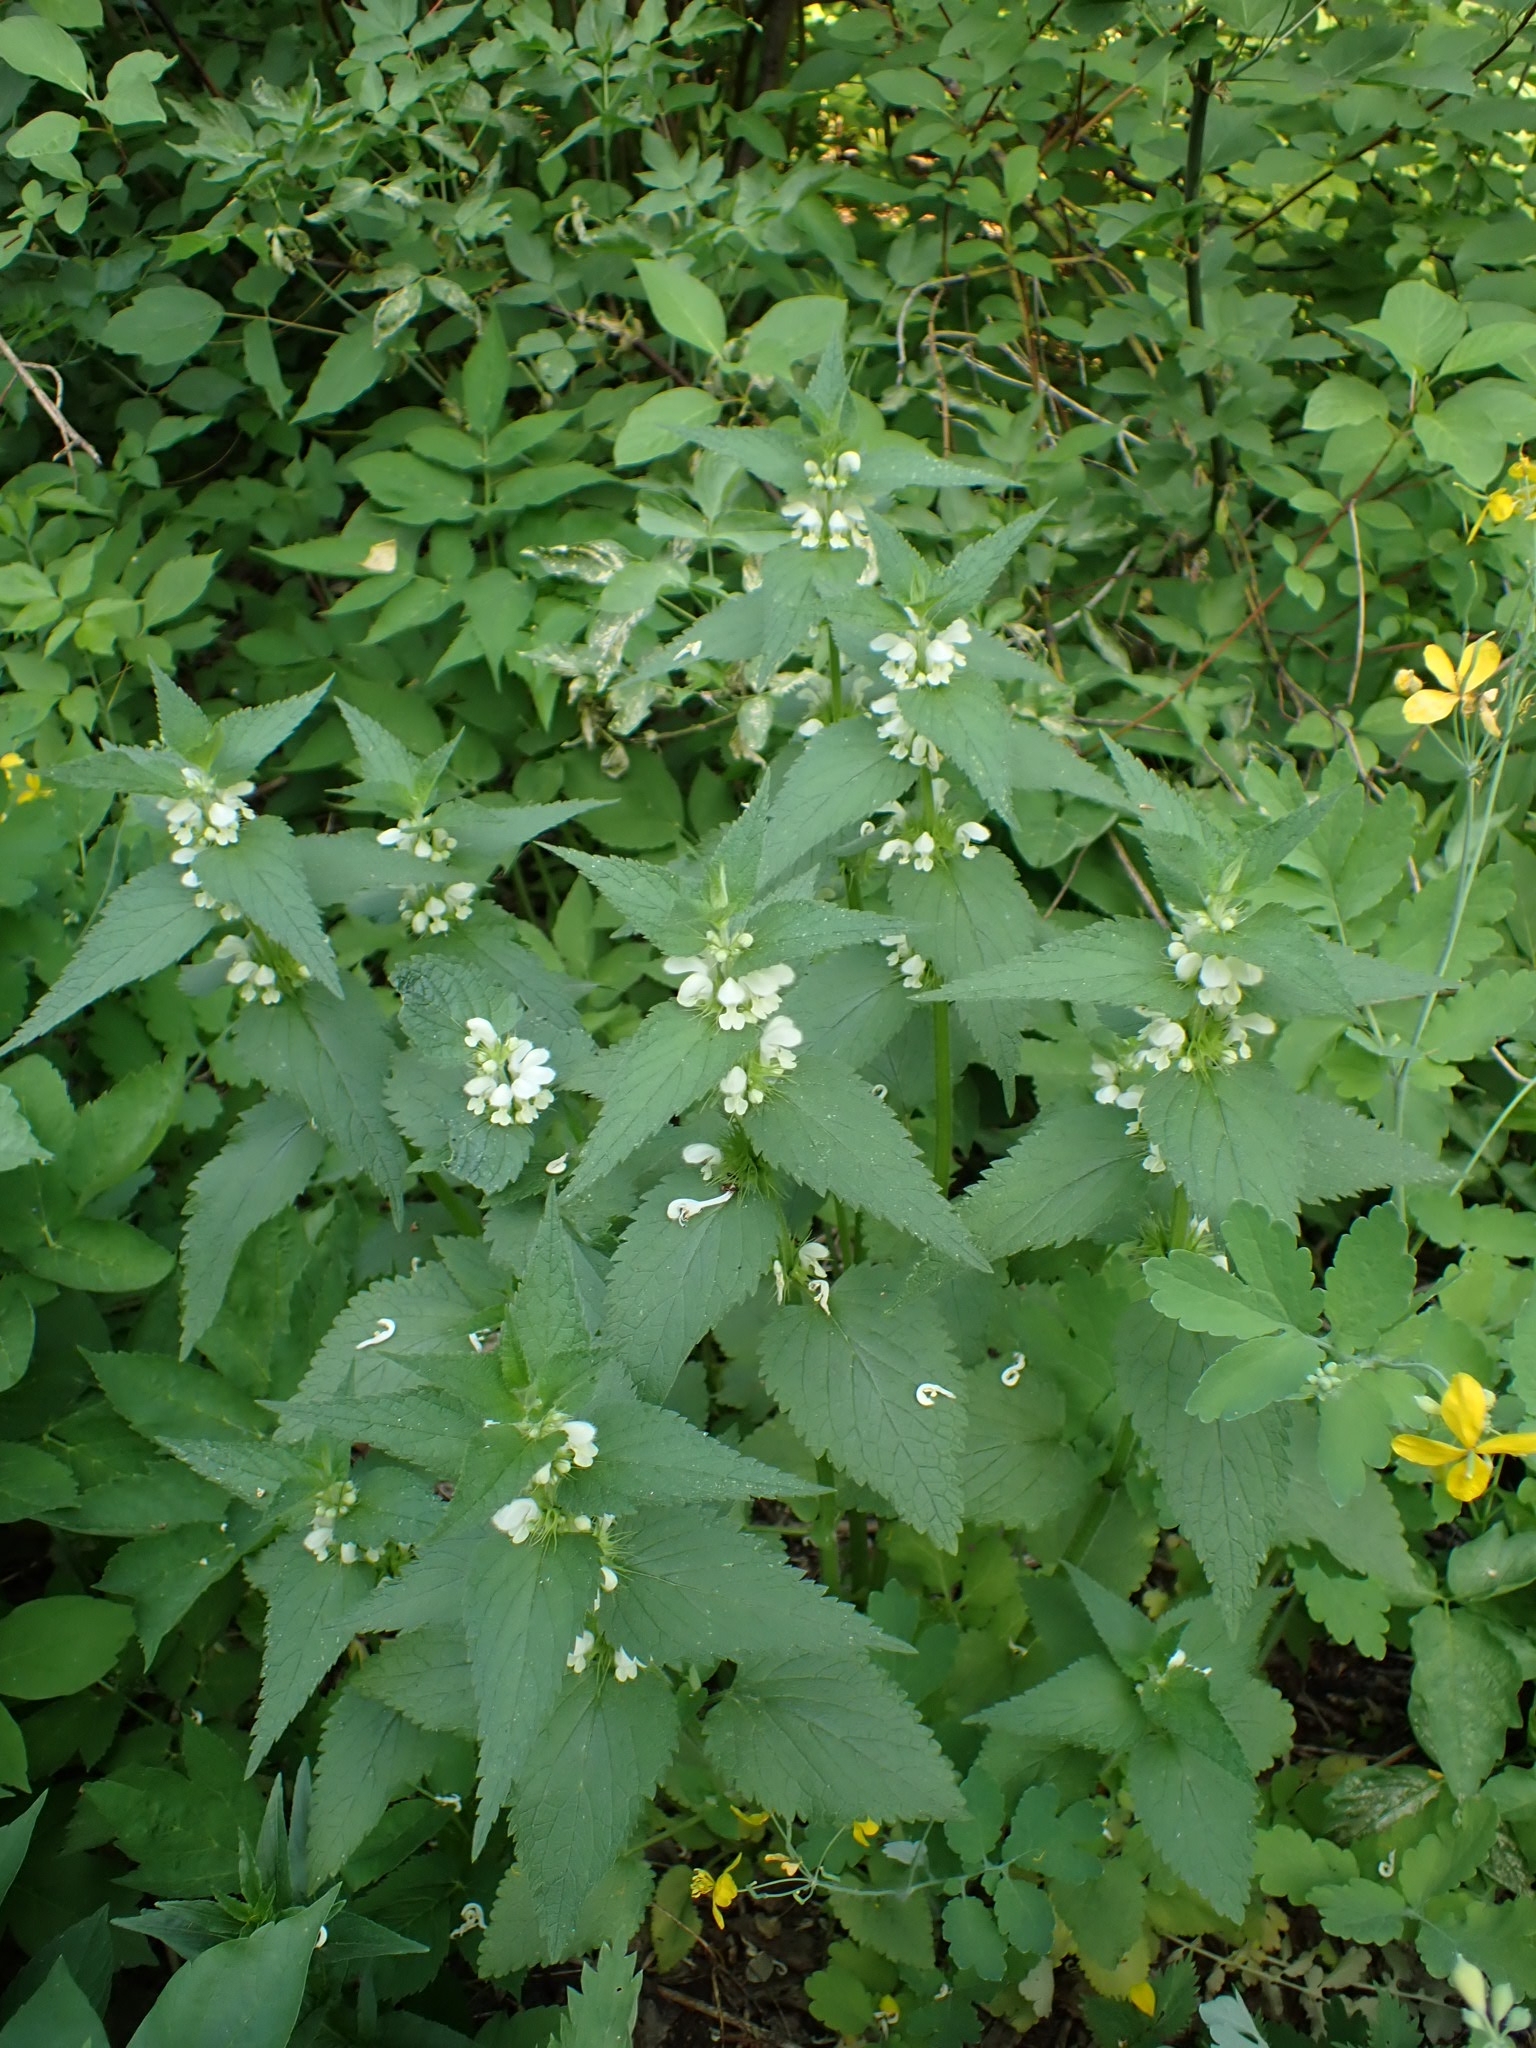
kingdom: Plantae
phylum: Tracheophyta
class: Magnoliopsida
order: Lamiales
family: Lamiaceae
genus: Lamium
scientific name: Lamium album
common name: White dead-nettle
